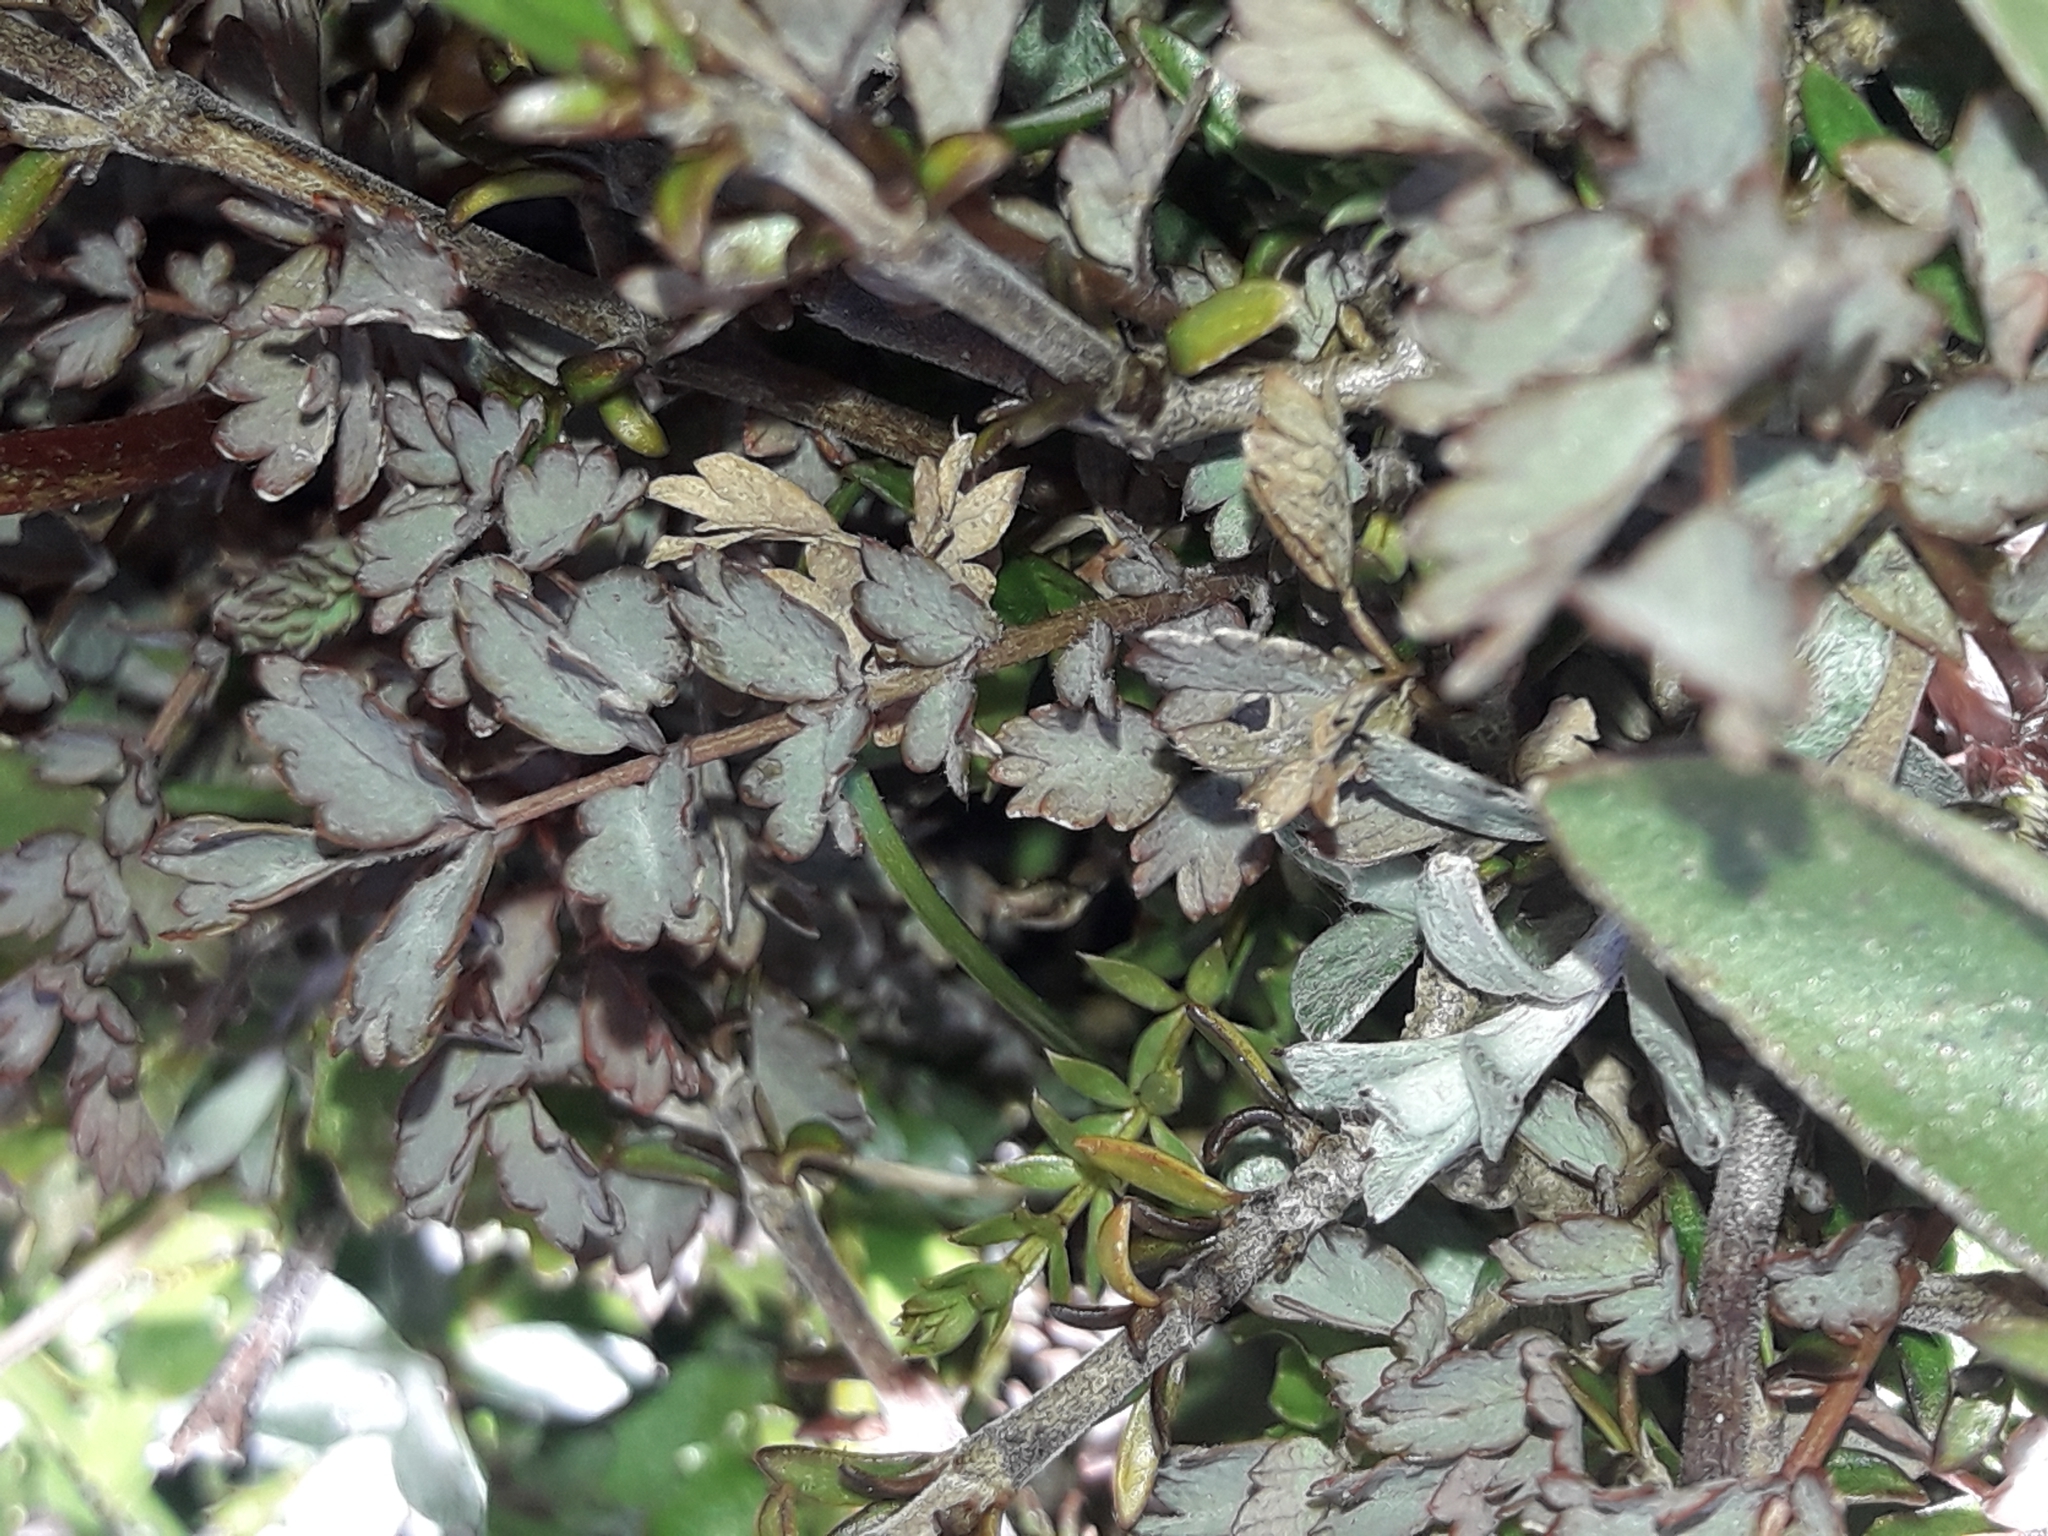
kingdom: Plantae
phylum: Tracheophyta
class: Magnoliopsida
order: Rosales
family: Rosaceae
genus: Acaena
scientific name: Acaena saccaticupula
